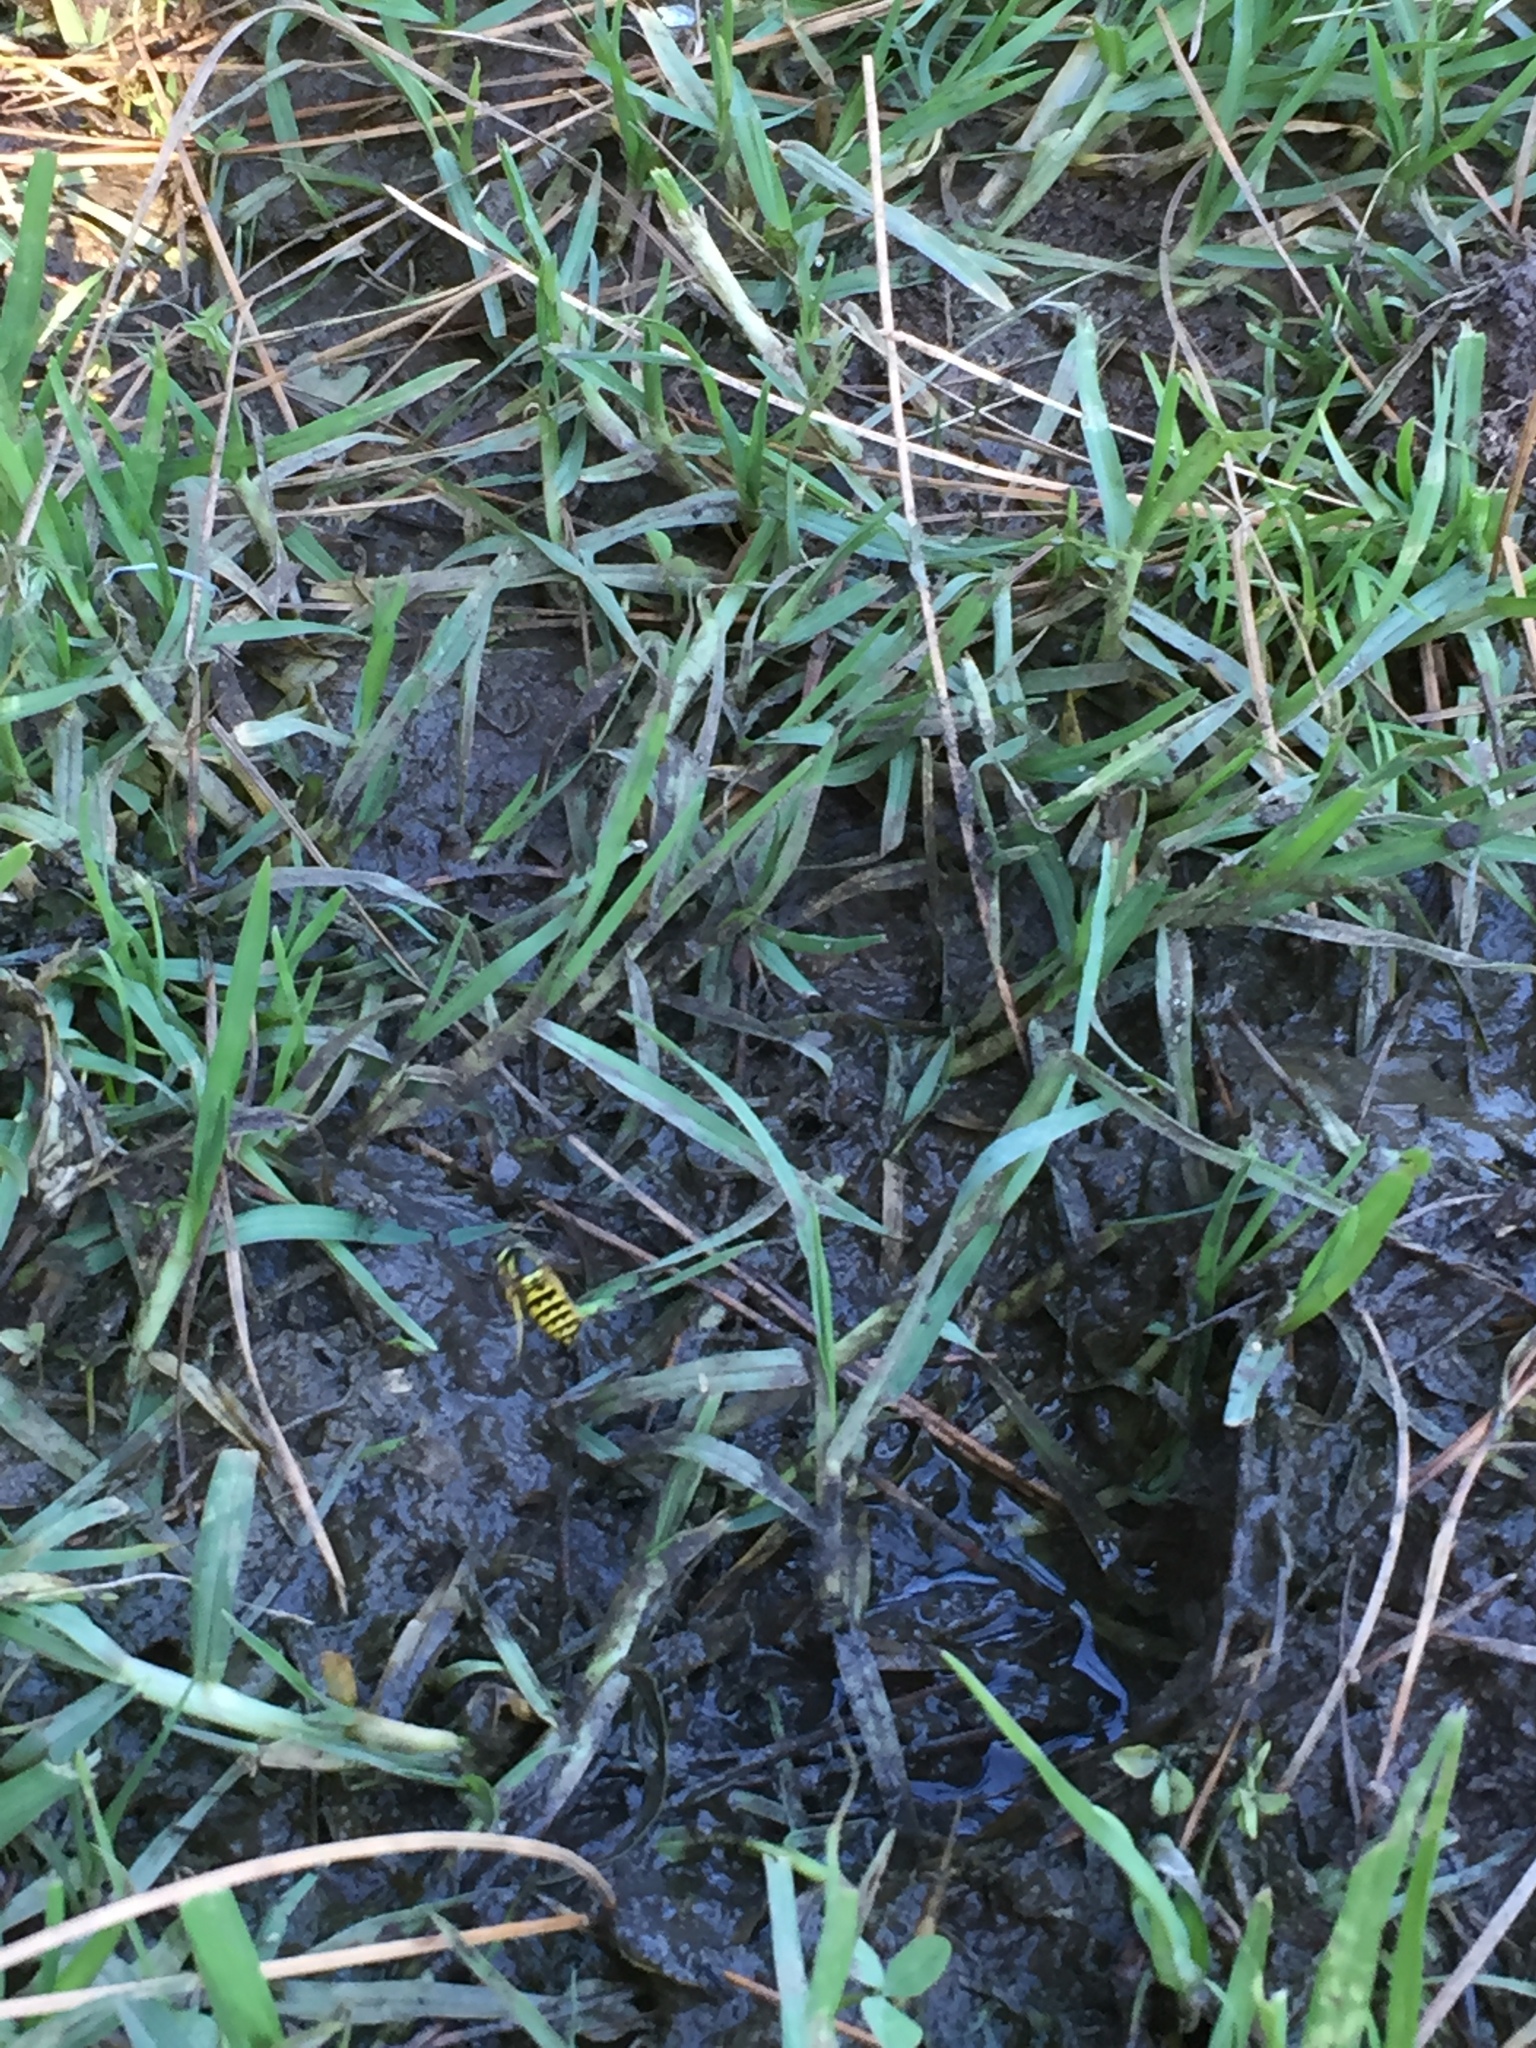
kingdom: Animalia
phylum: Arthropoda
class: Insecta
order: Hymenoptera
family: Vespidae
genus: Vespula
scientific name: Vespula pensylvanica
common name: Western yellowjacket
